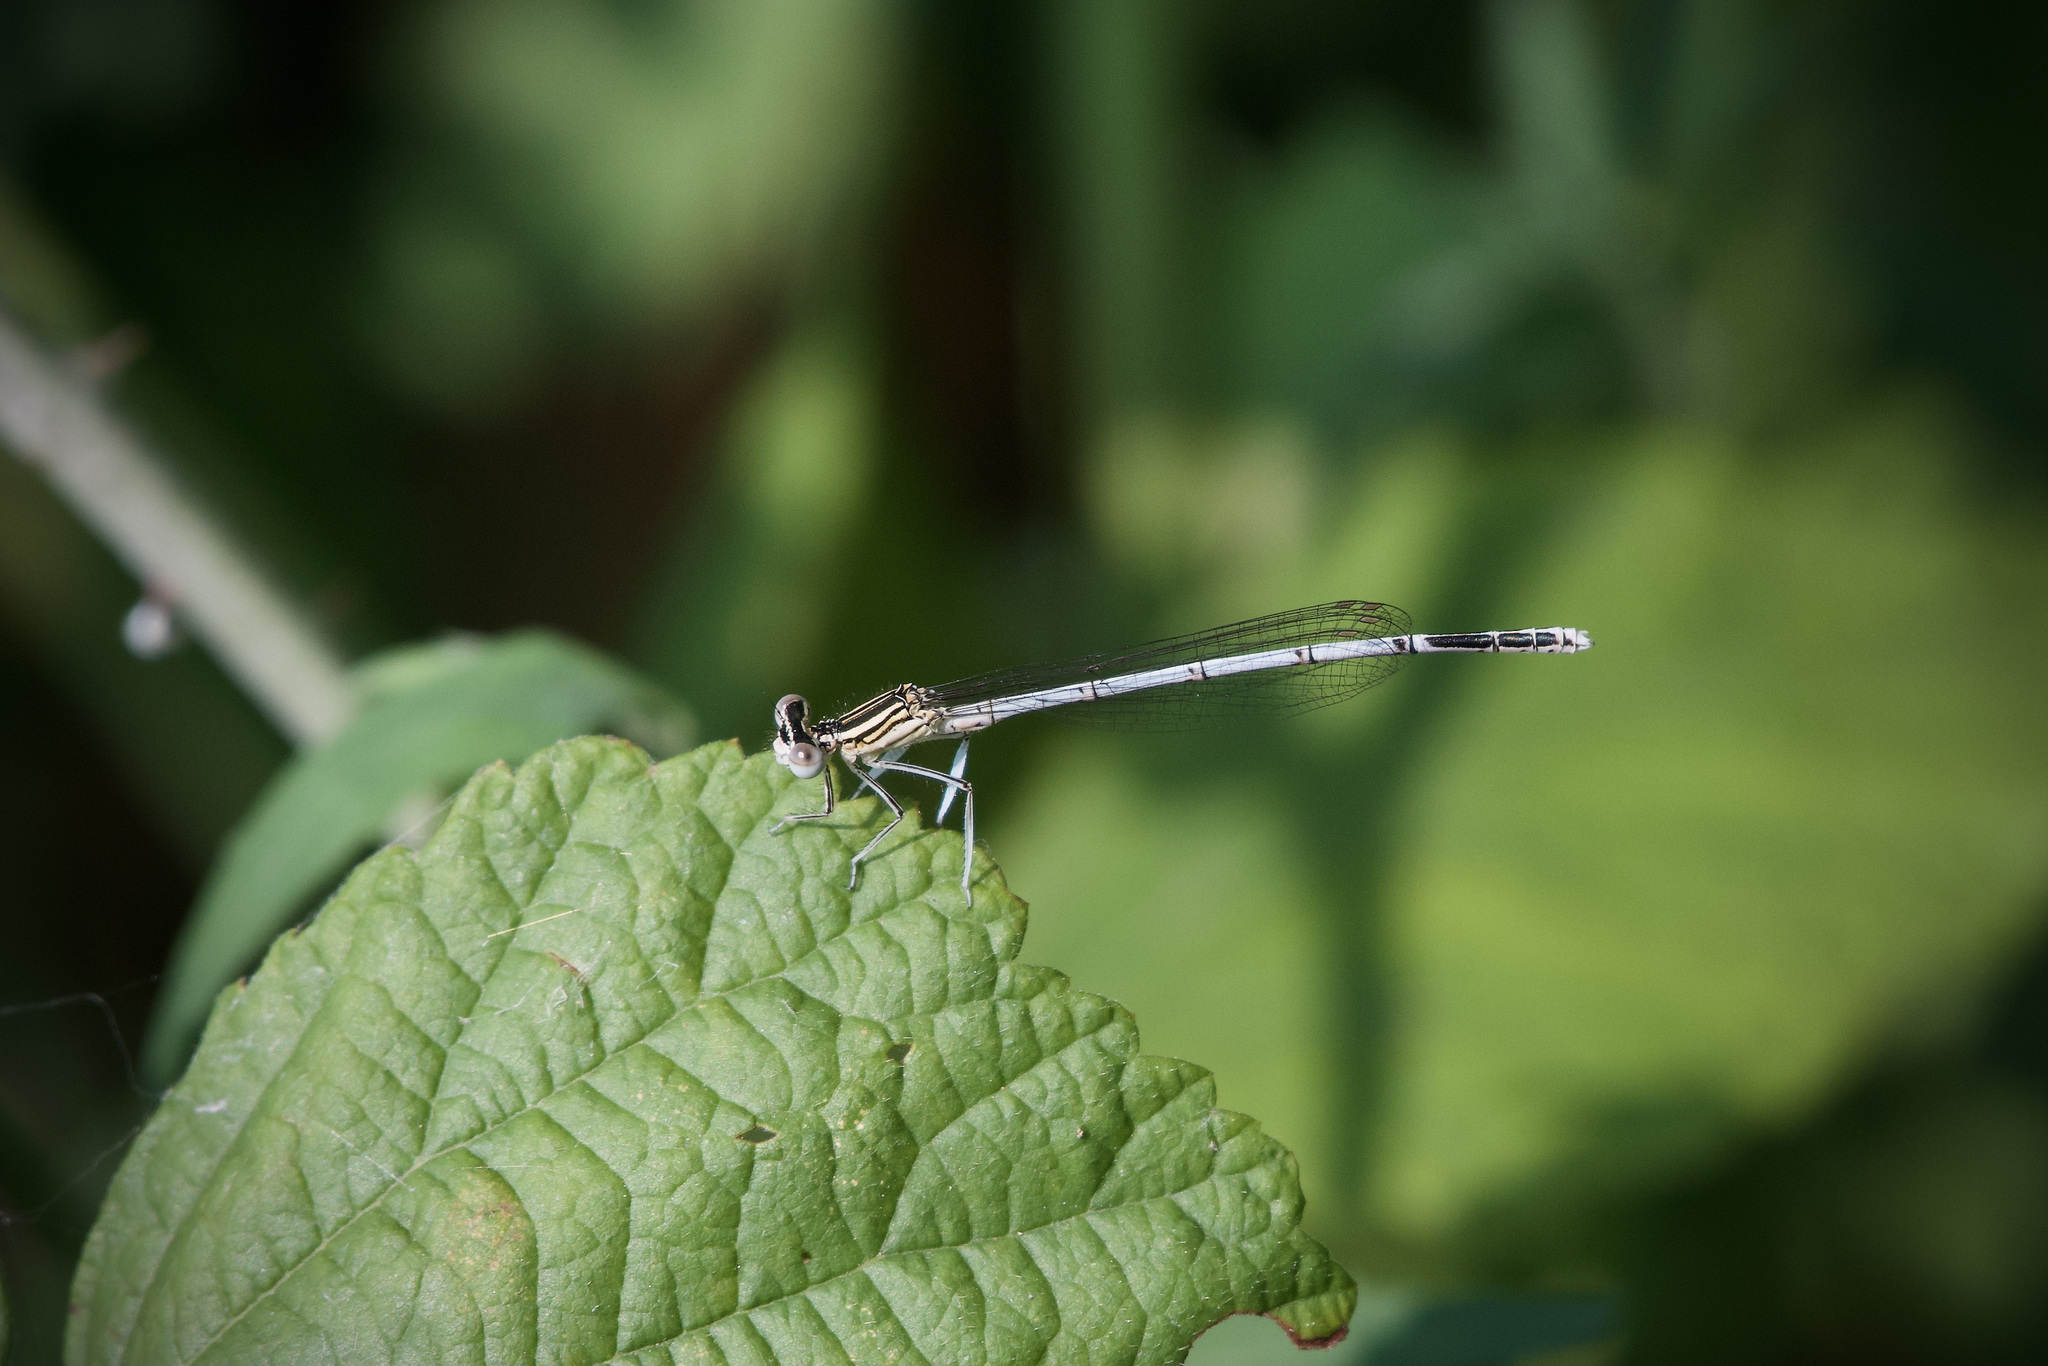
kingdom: Animalia
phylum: Arthropoda
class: Insecta
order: Odonata
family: Platycnemididae
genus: Platycnemis
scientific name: Platycnemis pennipes
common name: White-legged damselfly
